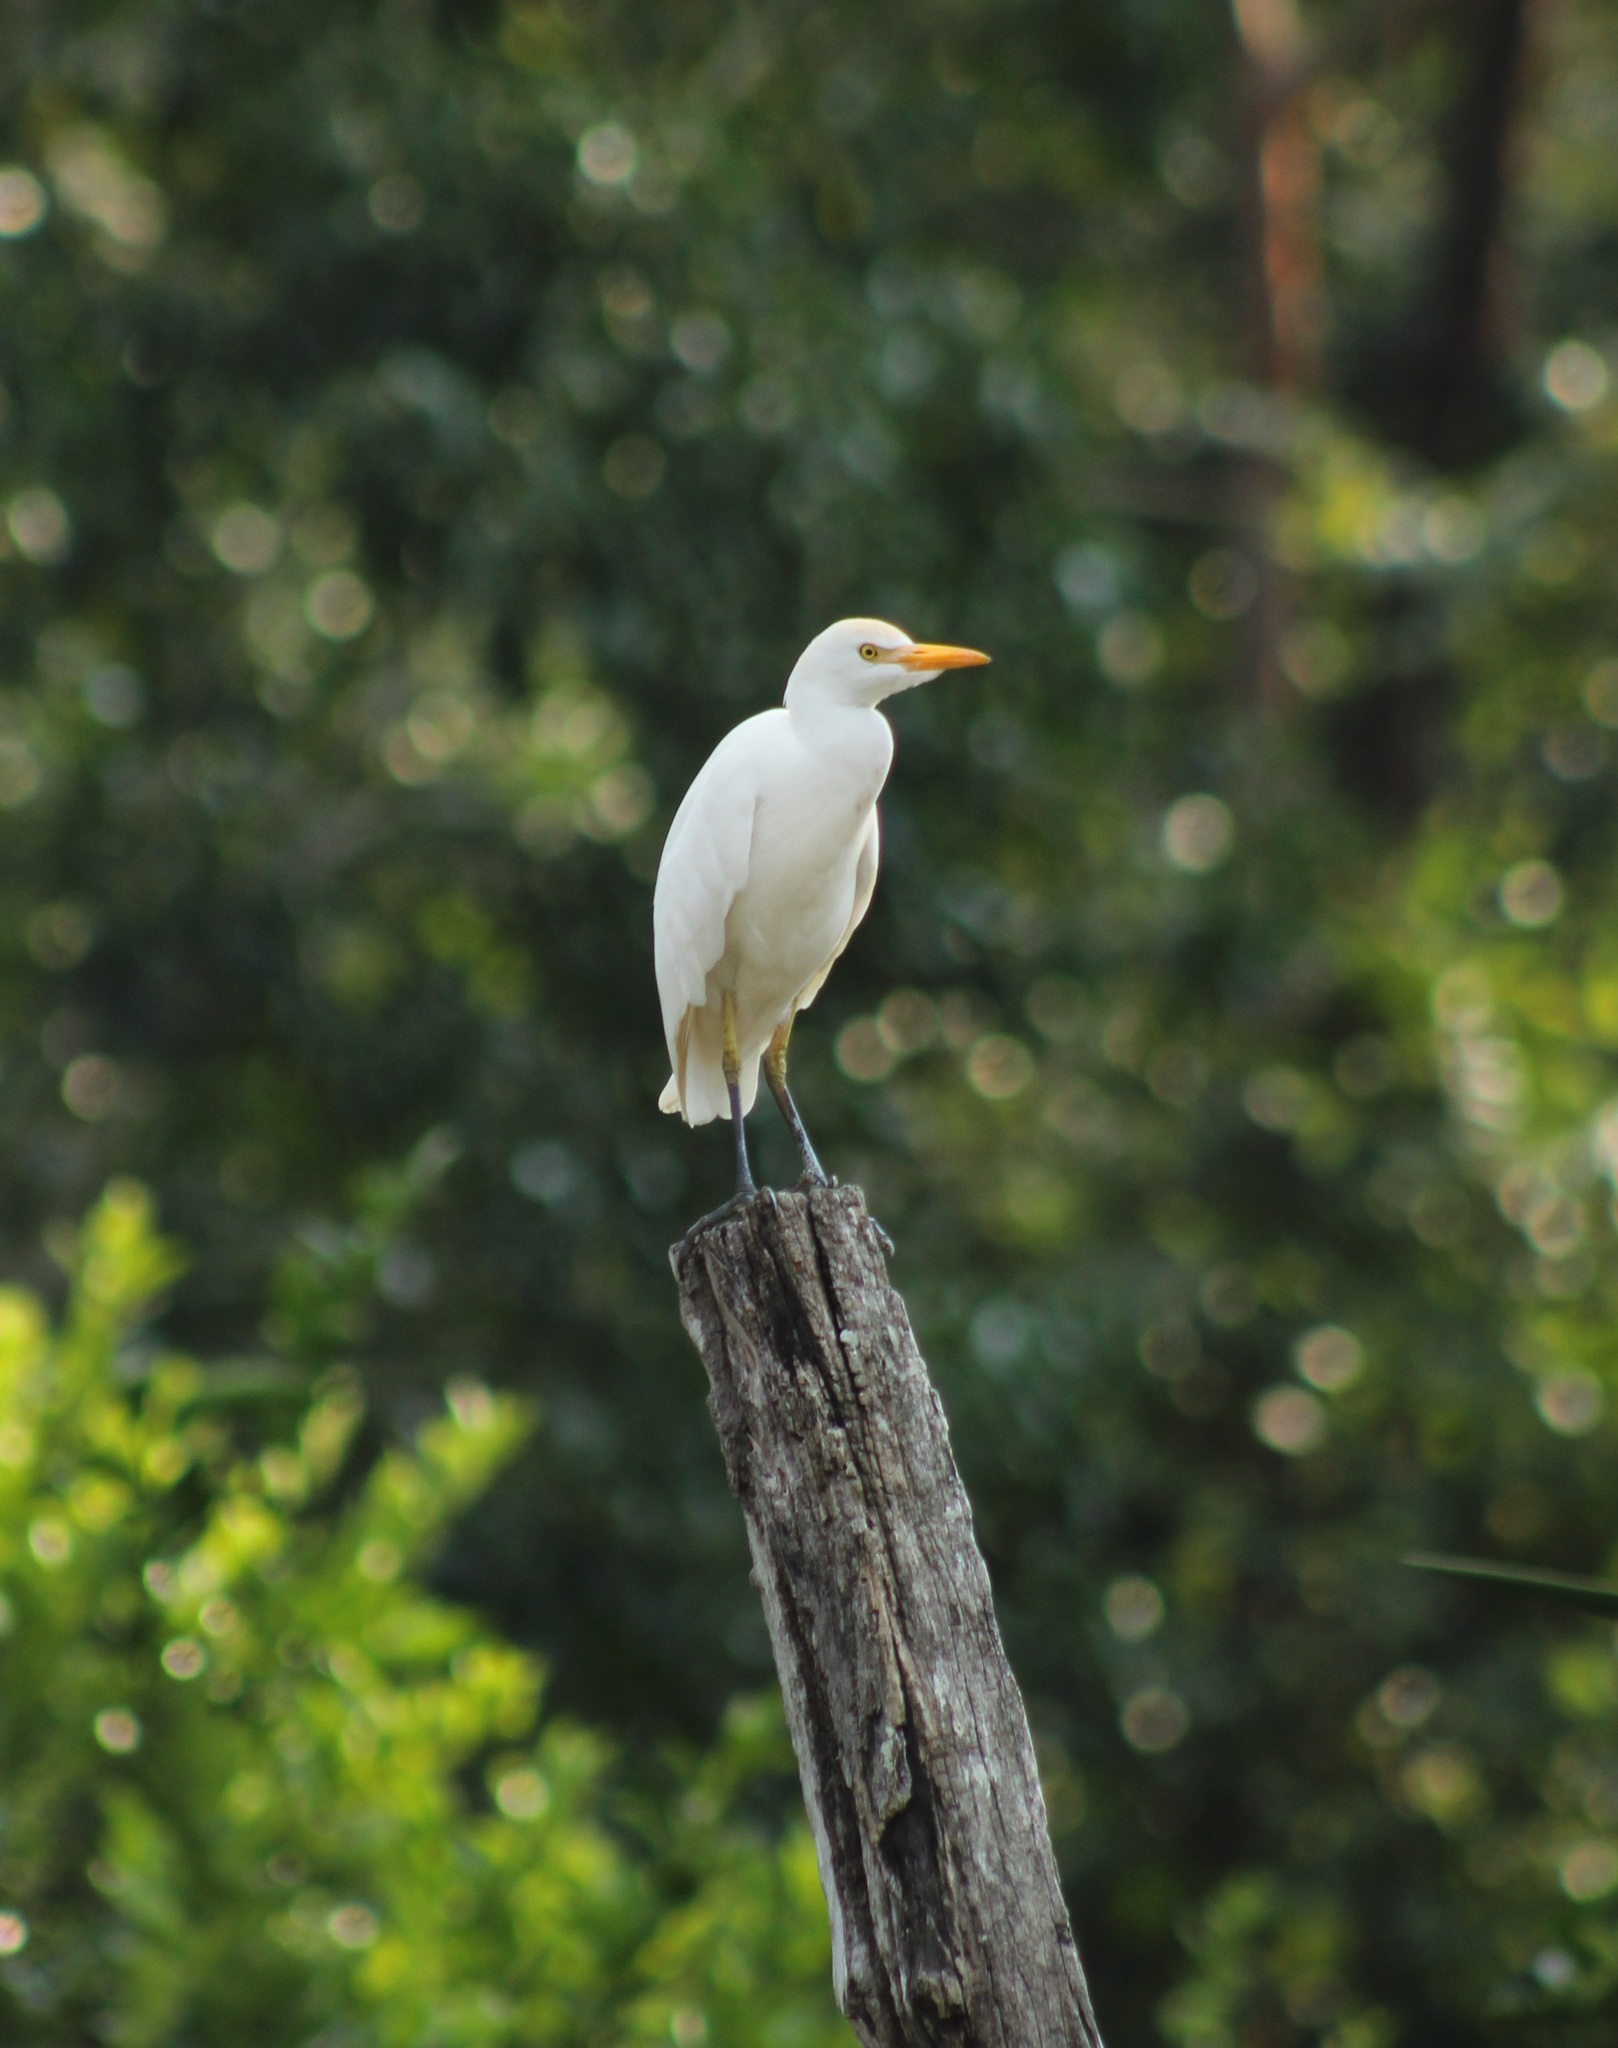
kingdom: Animalia
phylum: Chordata
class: Aves
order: Pelecaniformes
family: Ardeidae
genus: Bubulcus
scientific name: Bubulcus ibis
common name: Cattle egret
